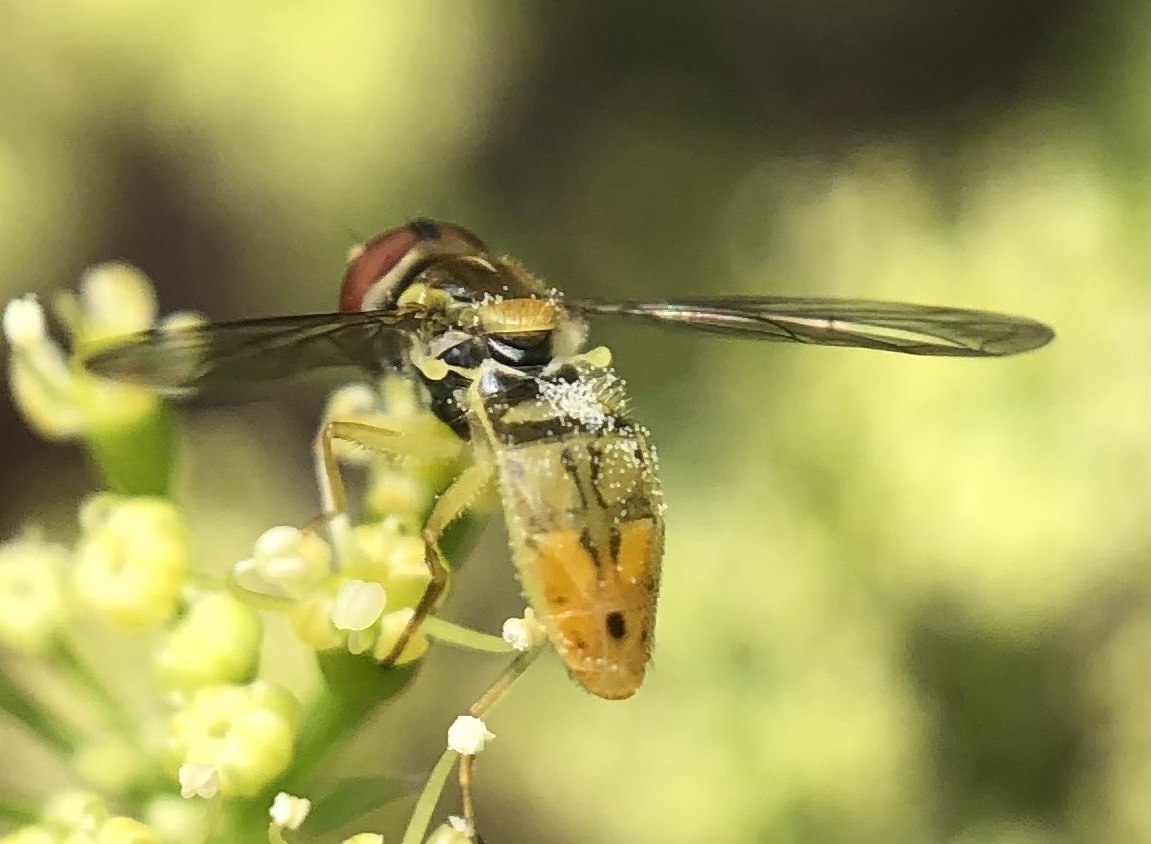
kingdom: Animalia
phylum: Arthropoda
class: Insecta
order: Diptera
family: Syrphidae
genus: Toxomerus
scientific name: Toxomerus marginatus
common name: Syrphid fly
